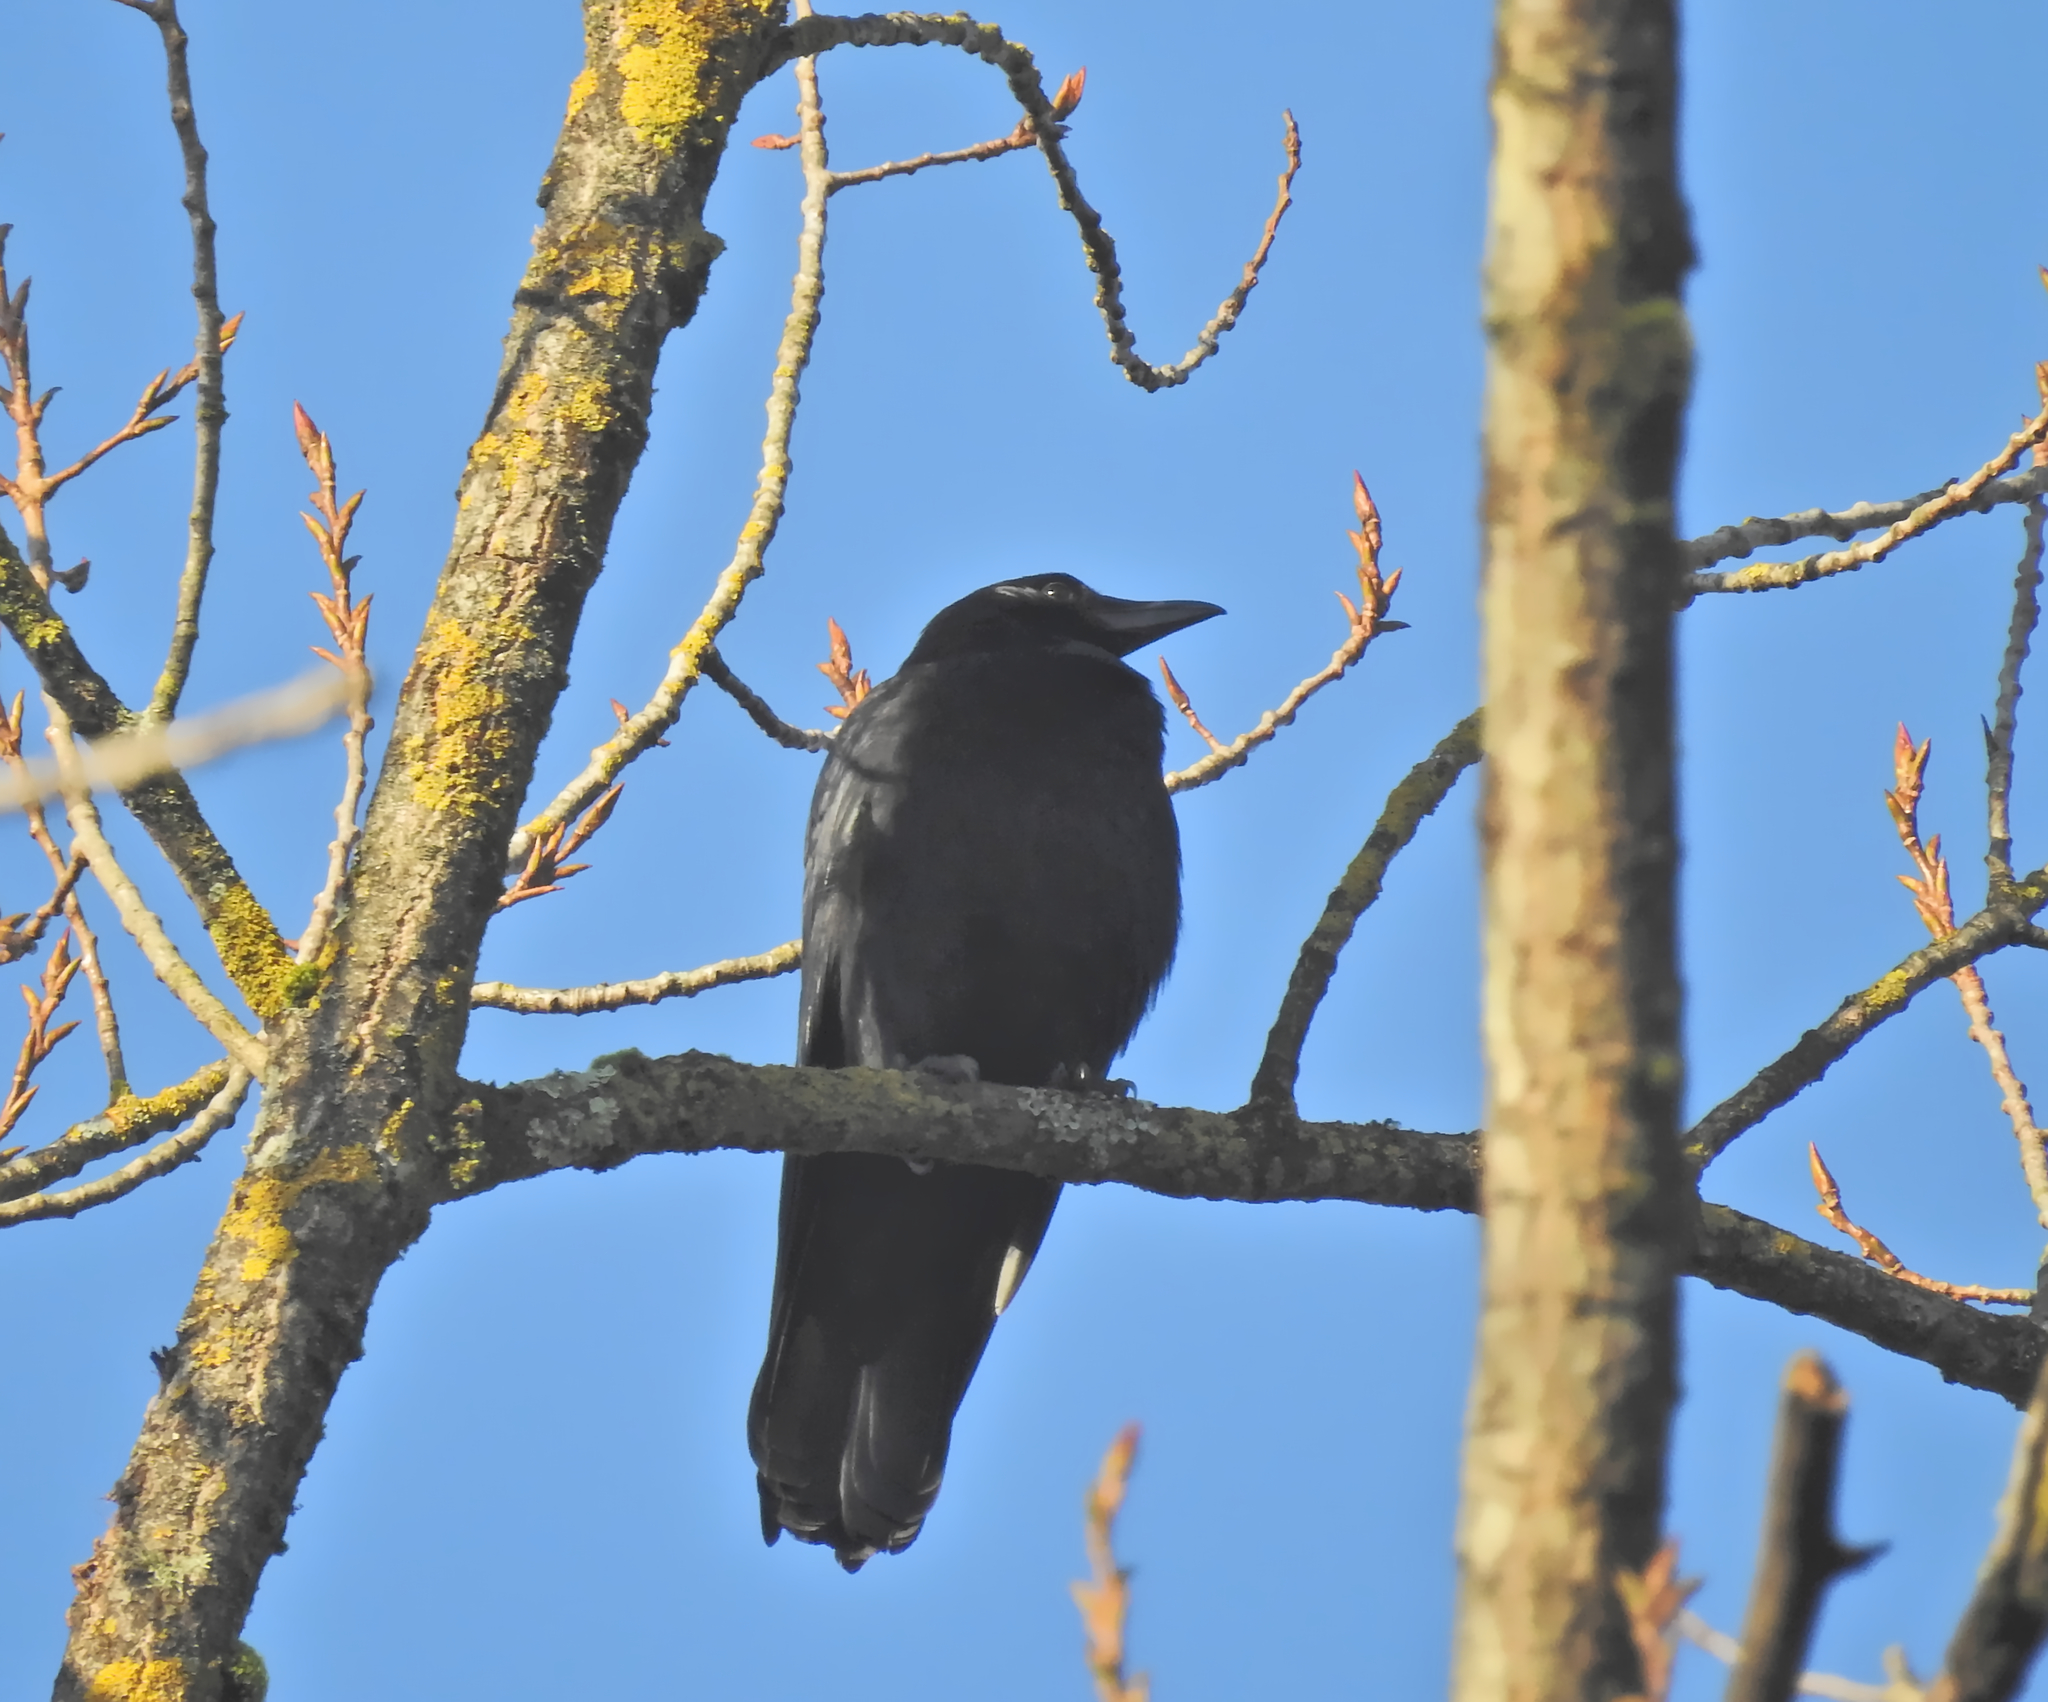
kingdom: Animalia
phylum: Chordata
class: Aves
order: Passeriformes
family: Corvidae
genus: Corvus
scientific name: Corvus corone
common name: Carrion crow
